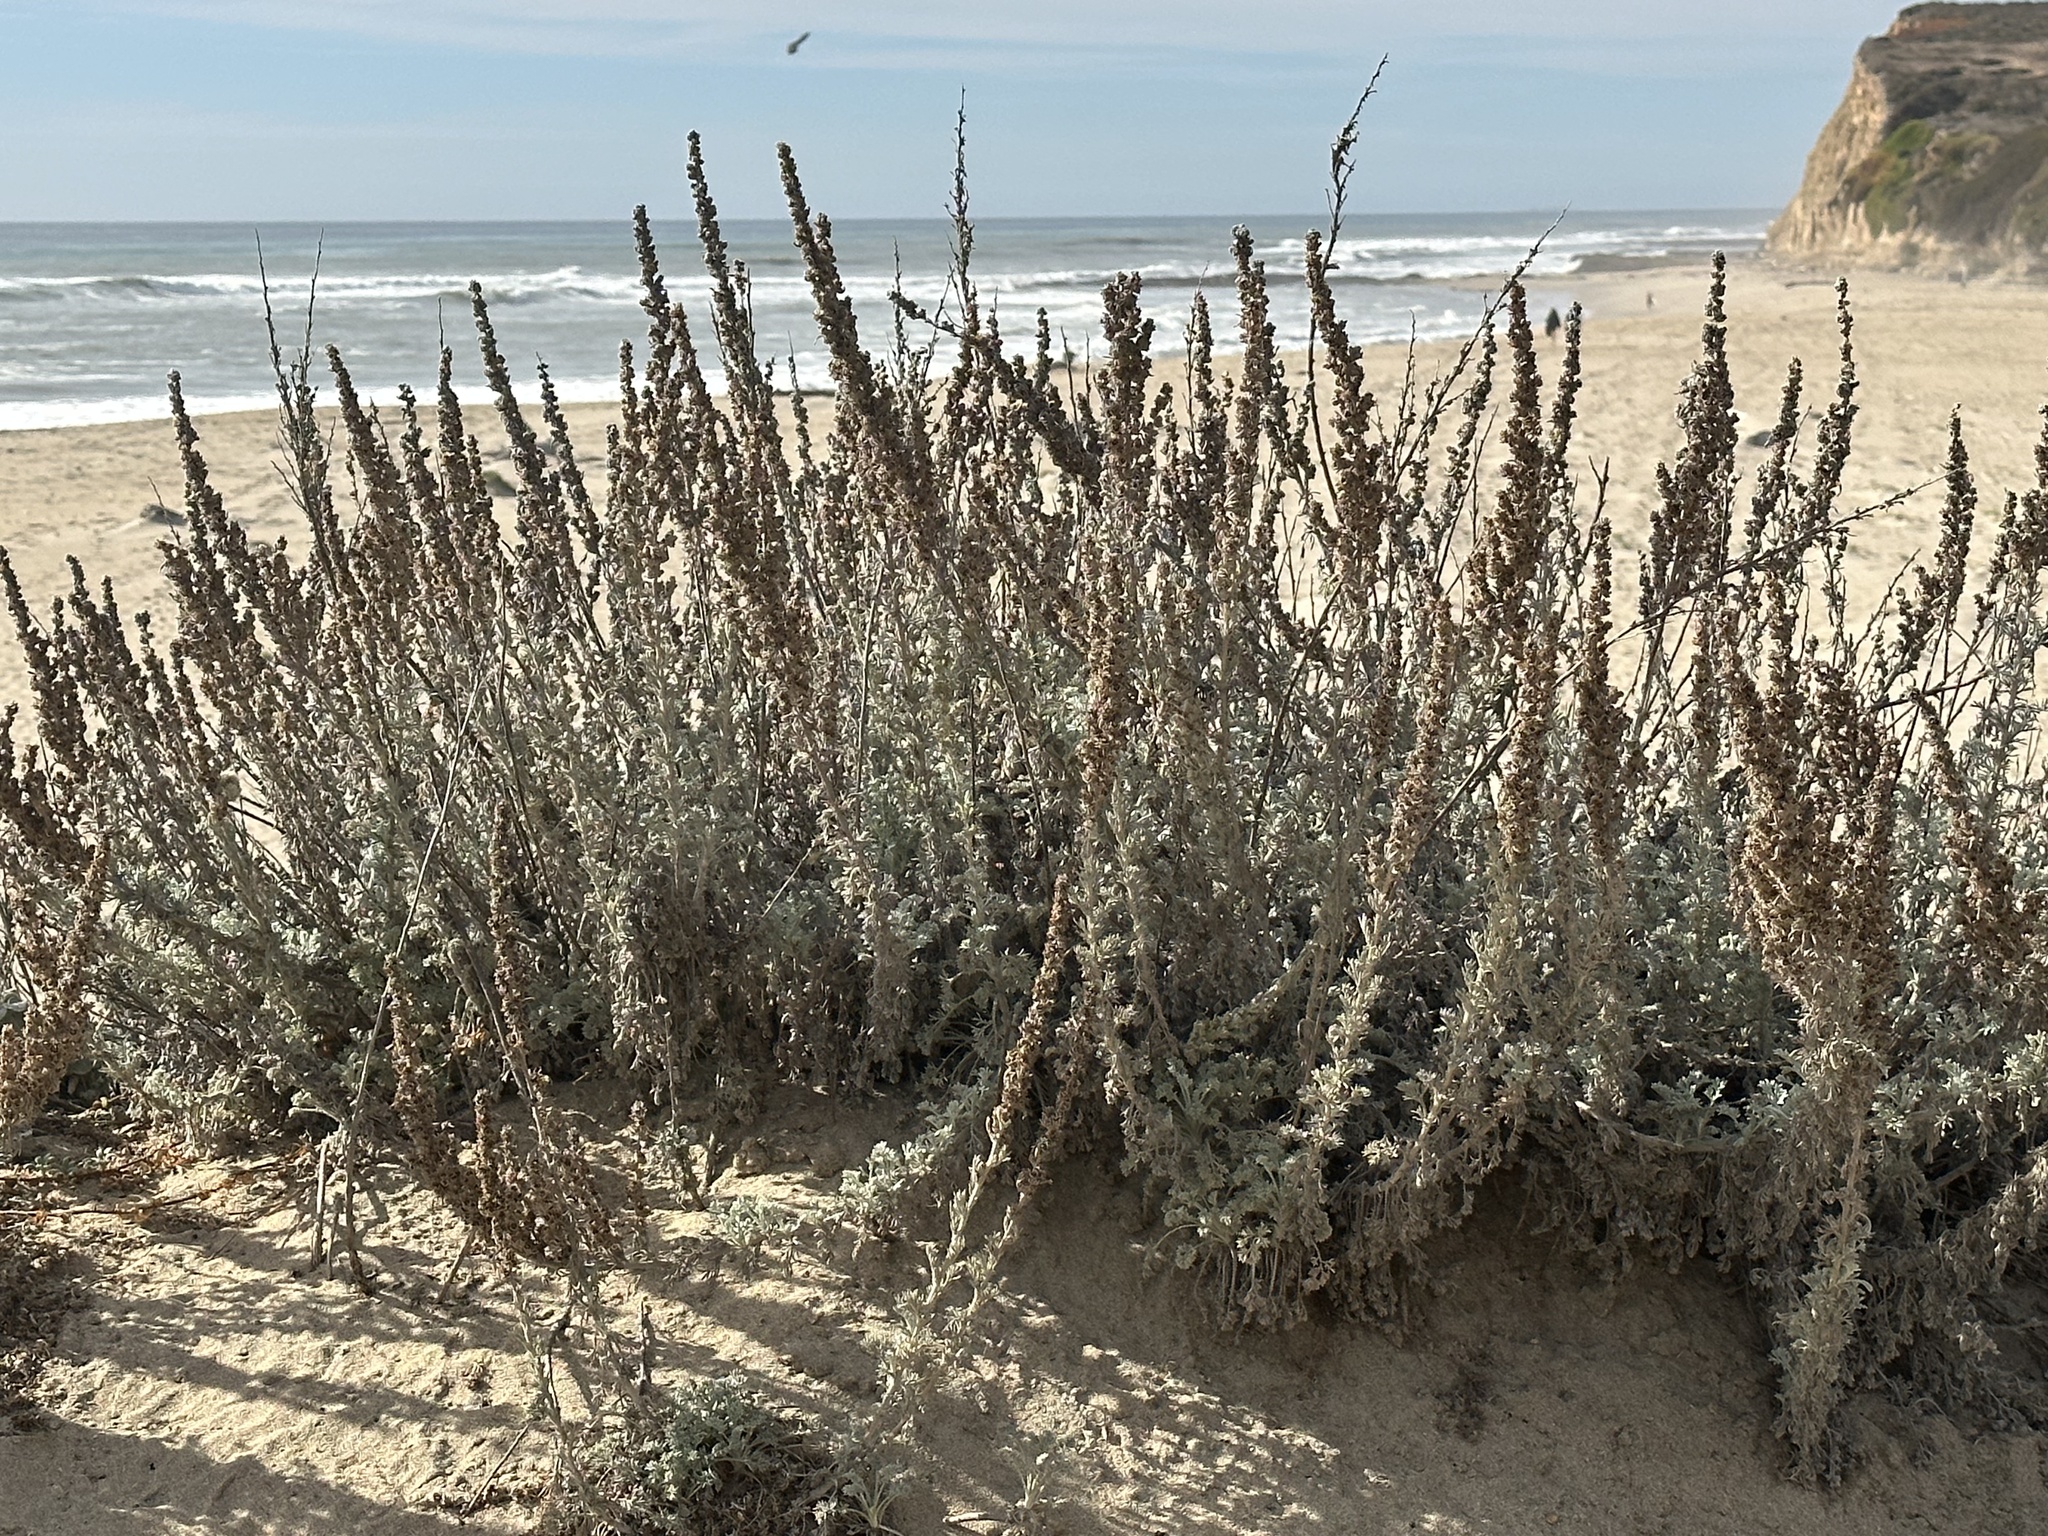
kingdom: Plantae
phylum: Tracheophyta
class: Magnoliopsida
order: Asterales
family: Asteraceae
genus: Artemisia
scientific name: Artemisia pycnocephala
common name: Coastal sagewort
